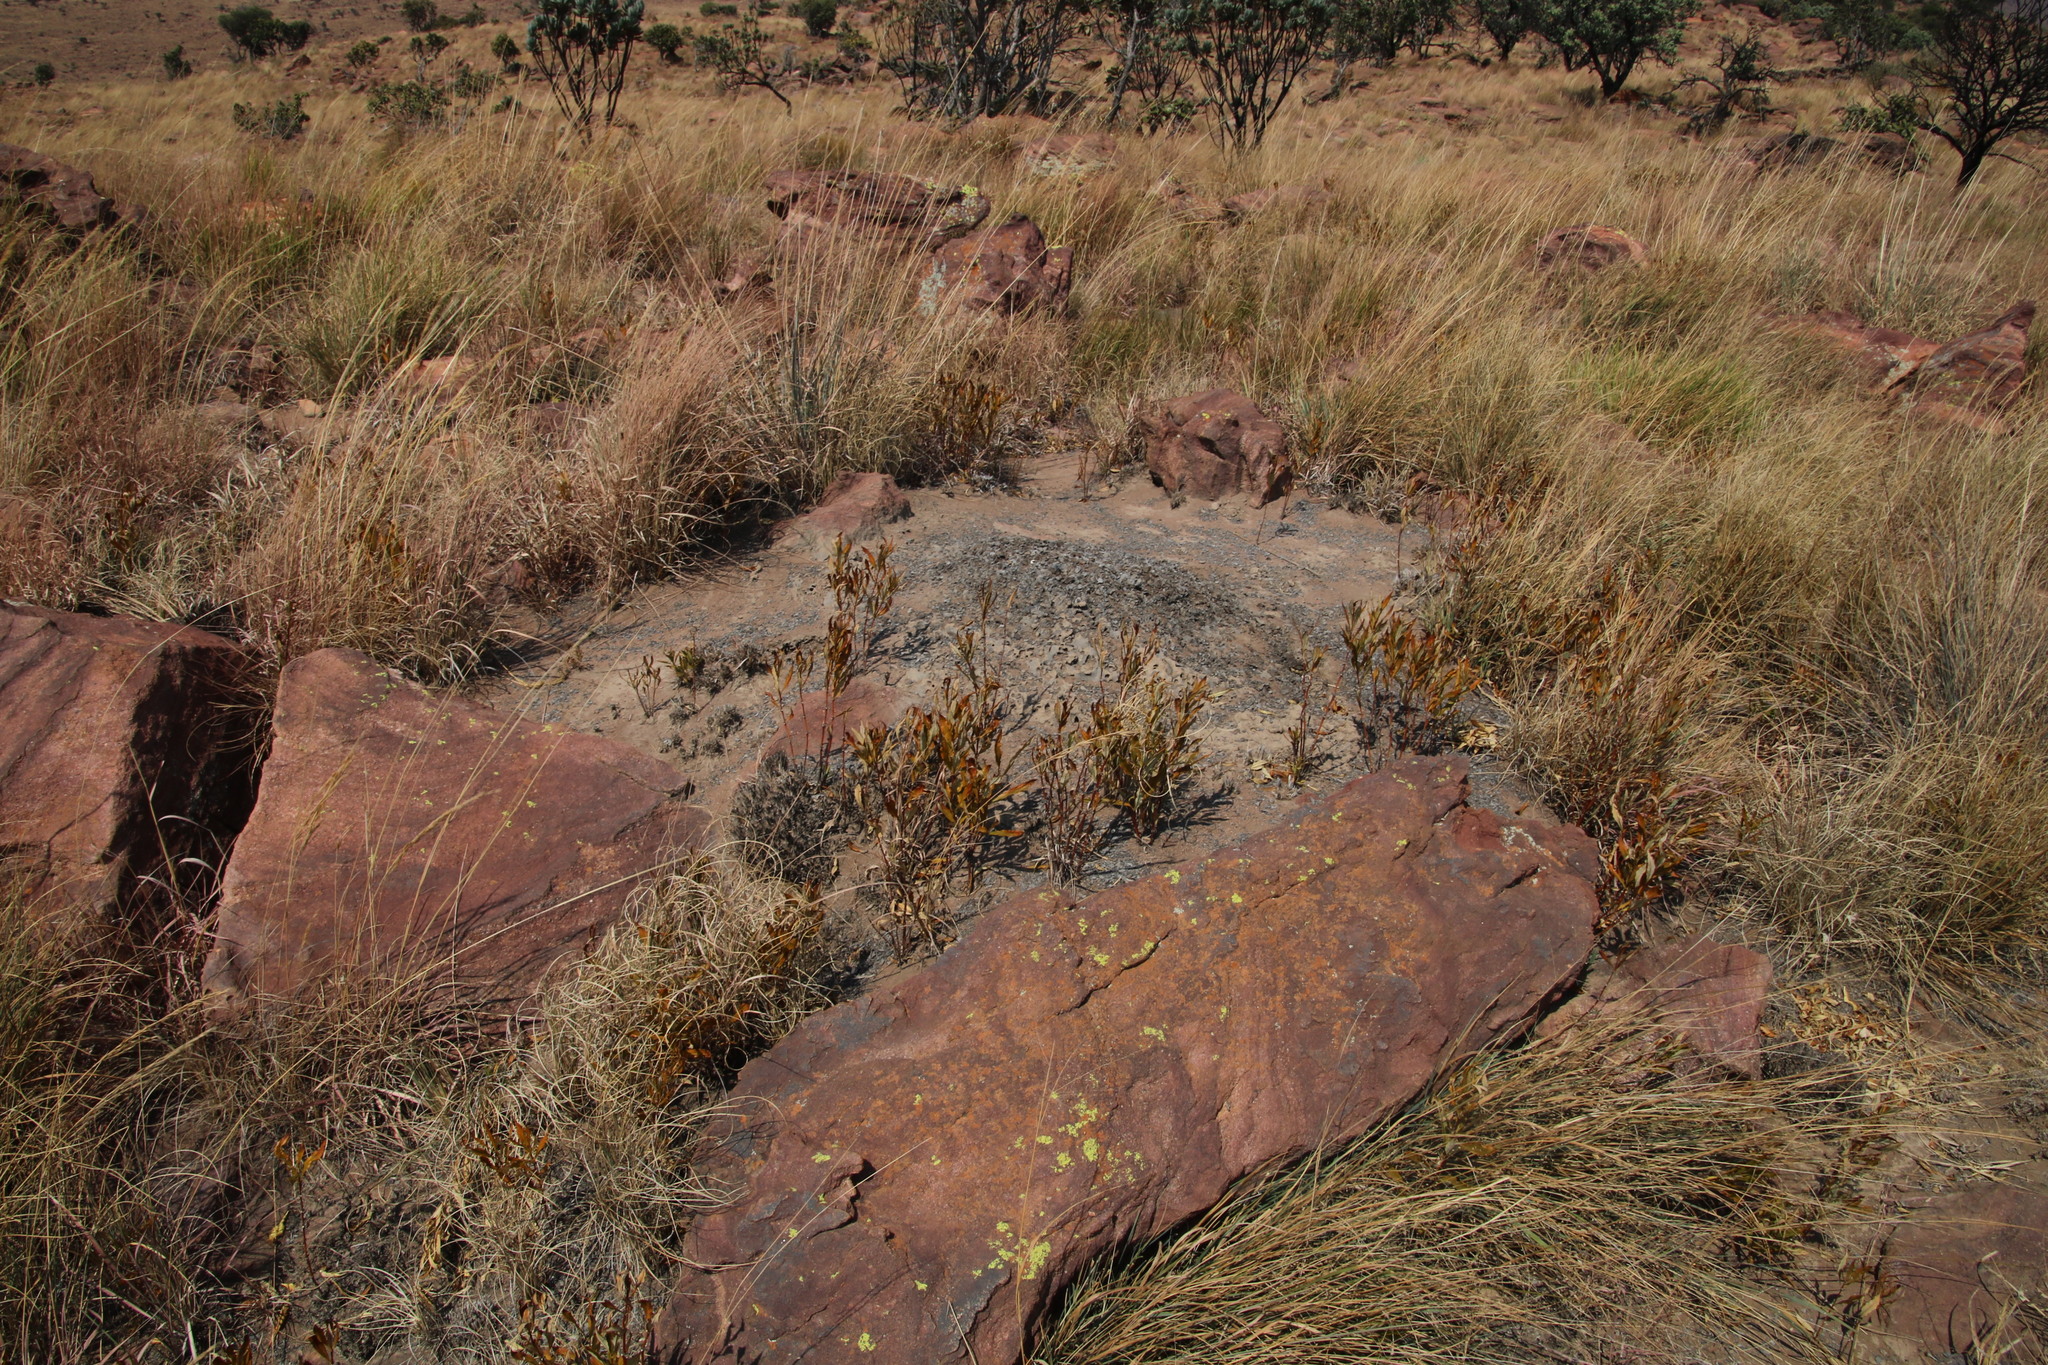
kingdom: Plantae
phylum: Tracheophyta
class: Magnoliopsida
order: Gentianales
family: Rubiaceae
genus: Fadogia
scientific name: Fadogia homblei
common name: Wild date
